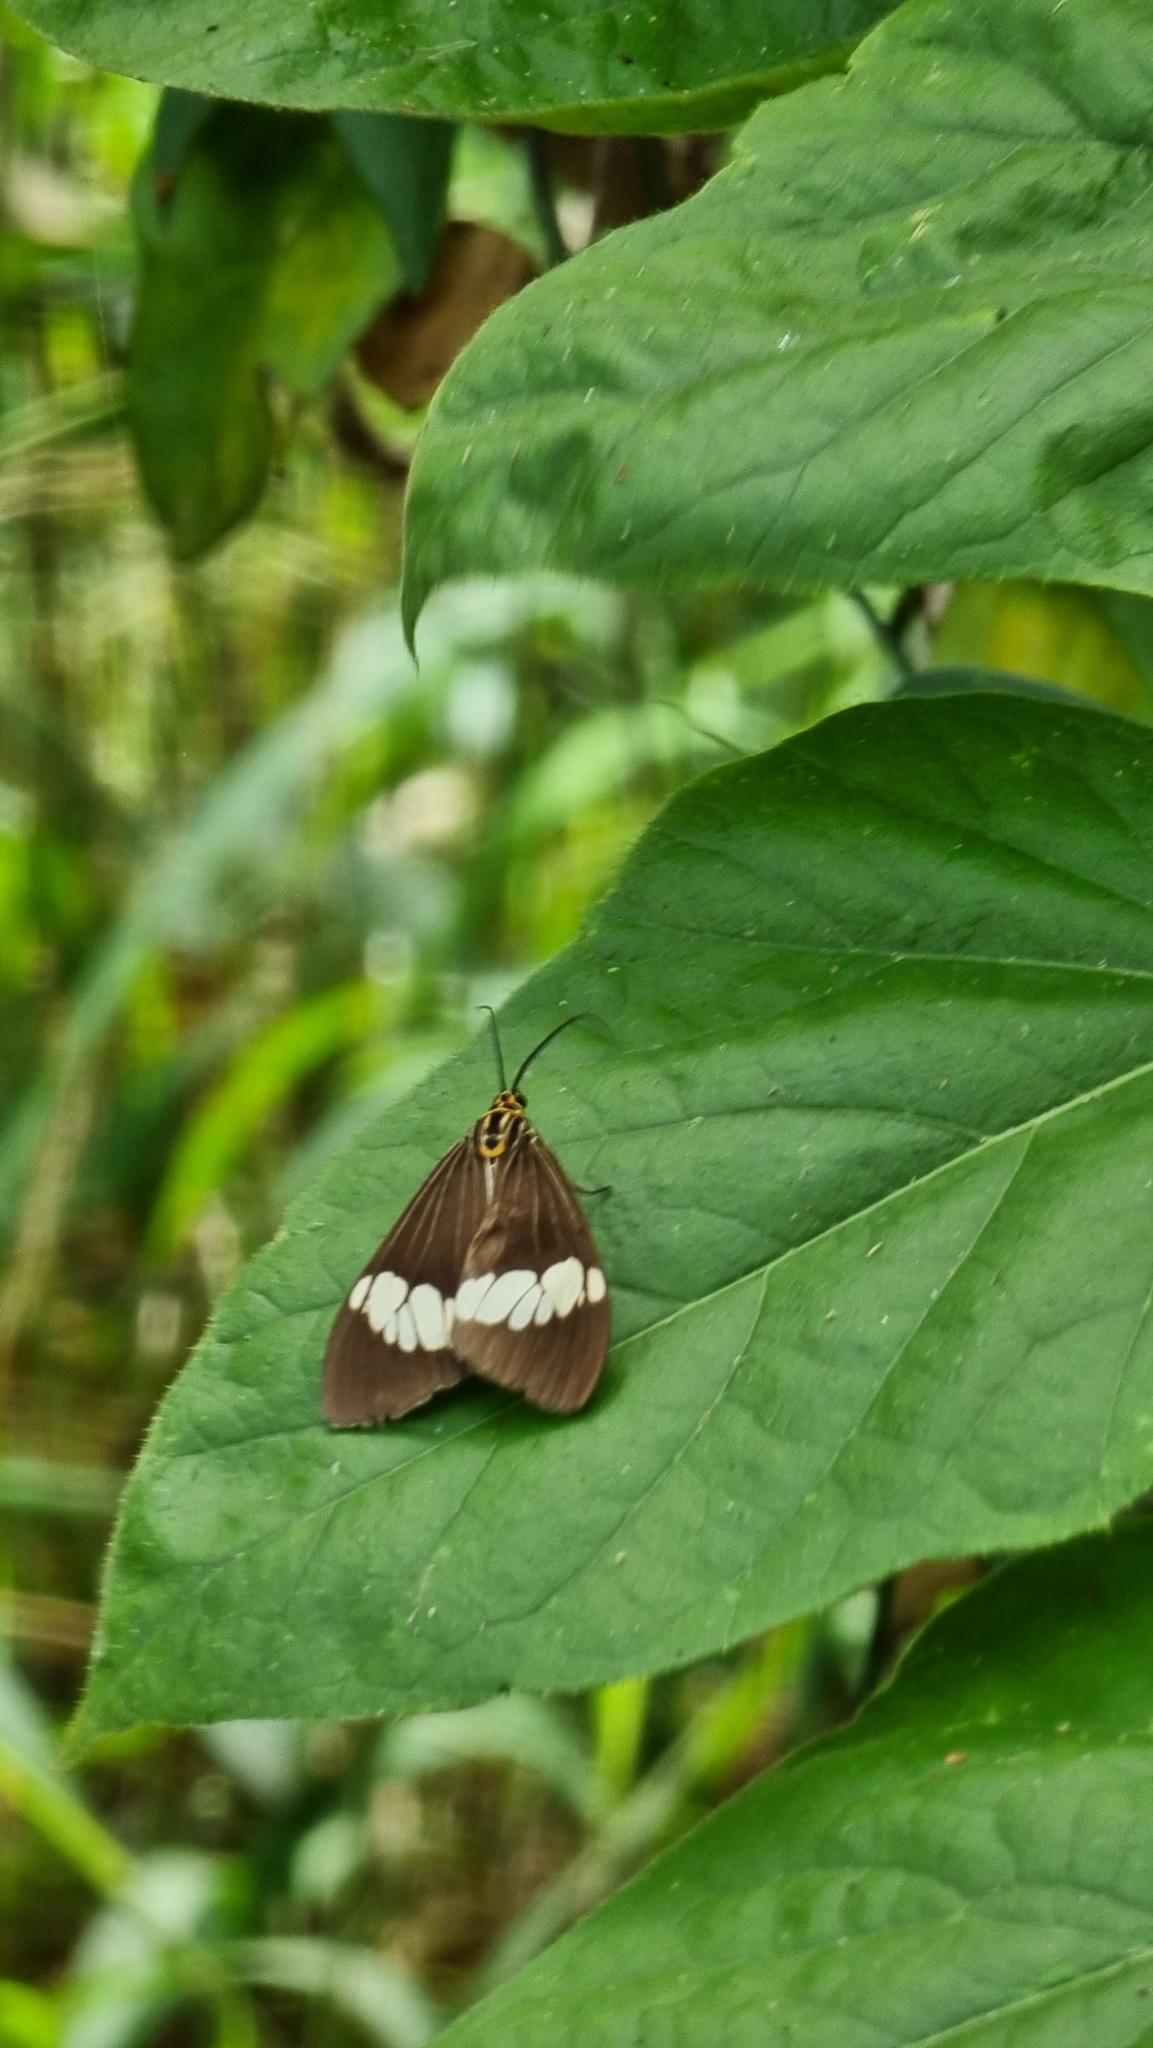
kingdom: Animalia
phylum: Arthropoda
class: Insecta
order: Lepidoptera
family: Erebidae
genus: Nyctemera
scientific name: Nyctemera baulus
